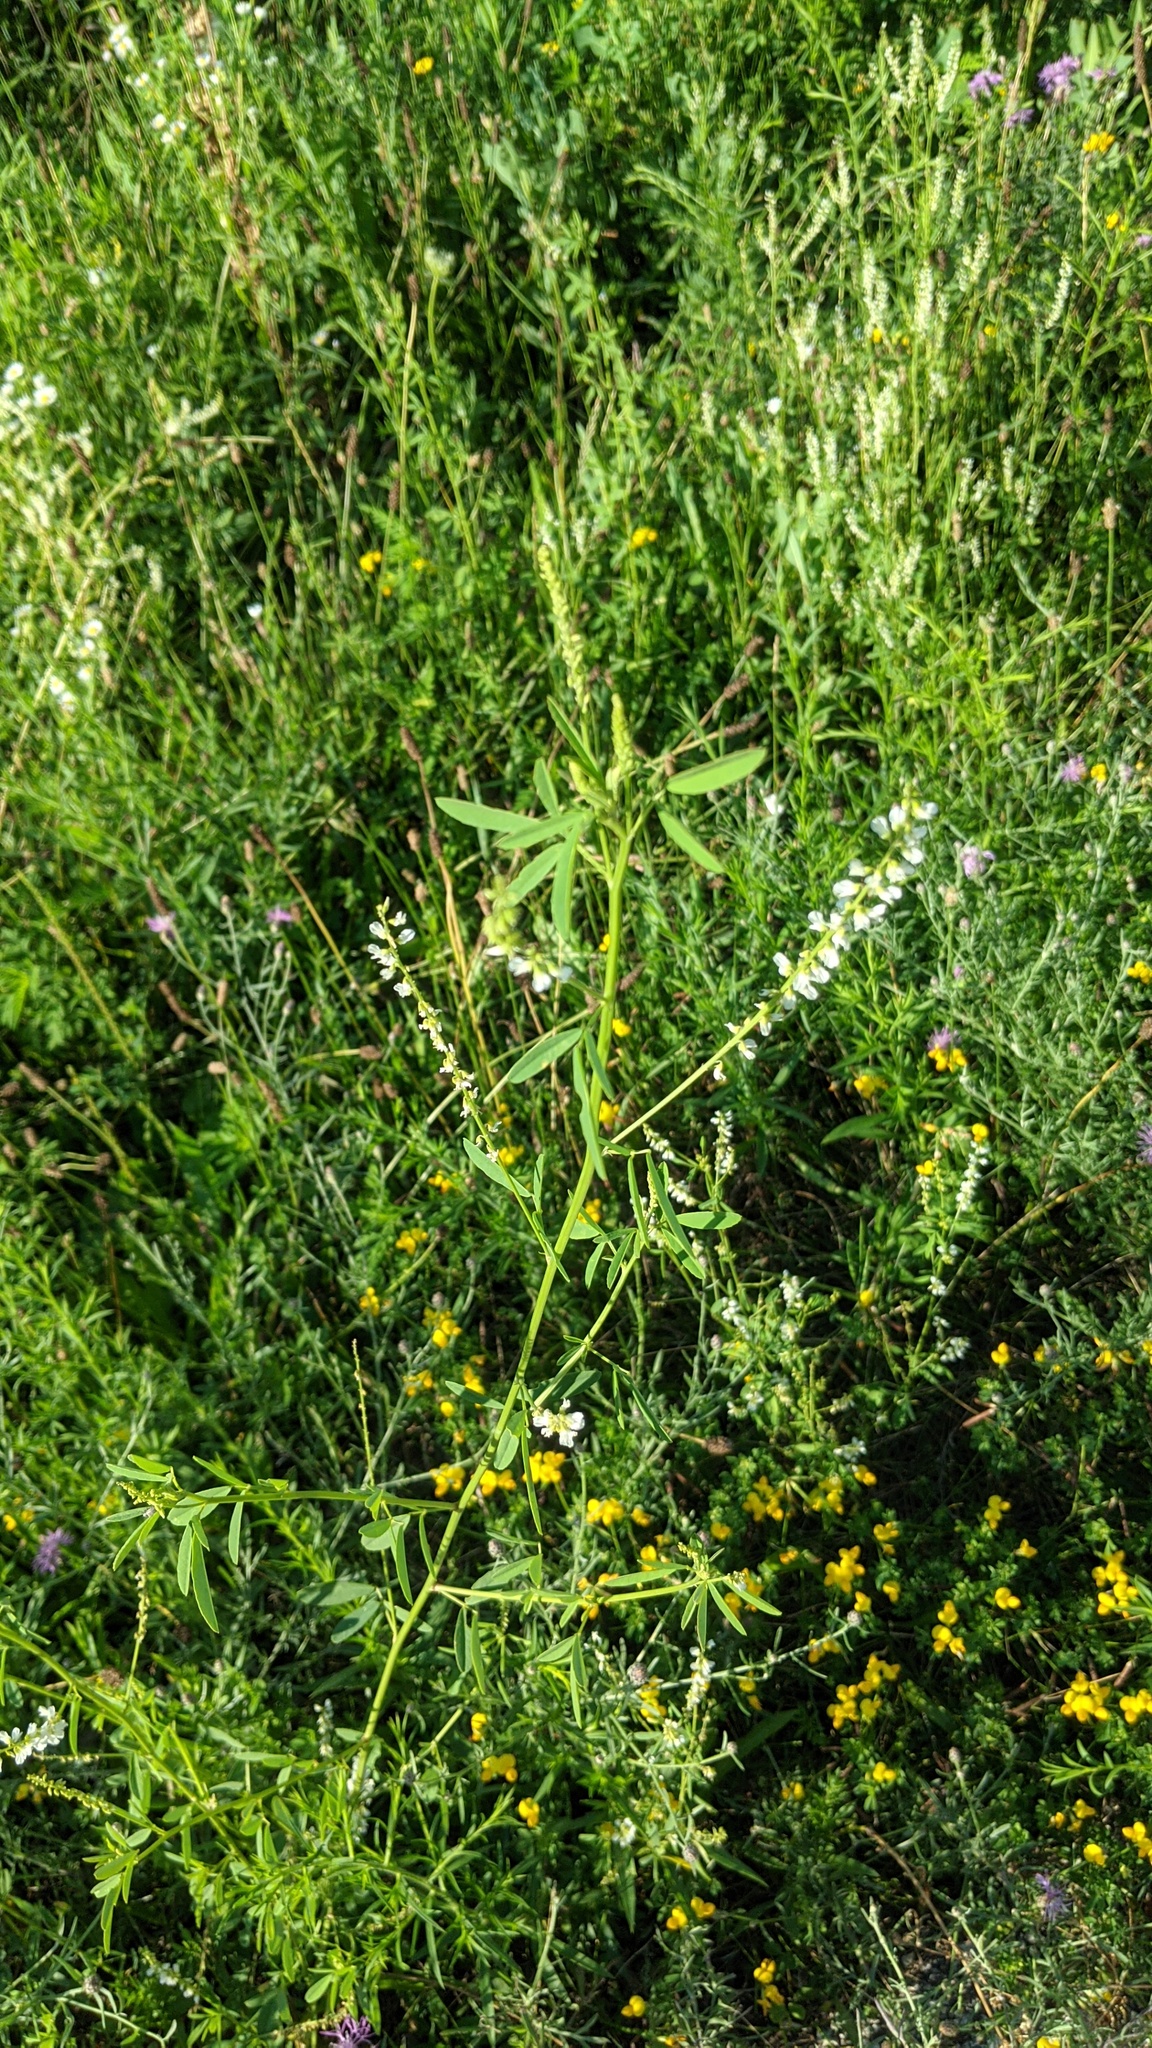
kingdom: Plantae
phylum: Tracheophyta
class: Magnoliopsida
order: Fabales
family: Fabaceae
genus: Melilotus
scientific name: Melilotus albus
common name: White melilot
